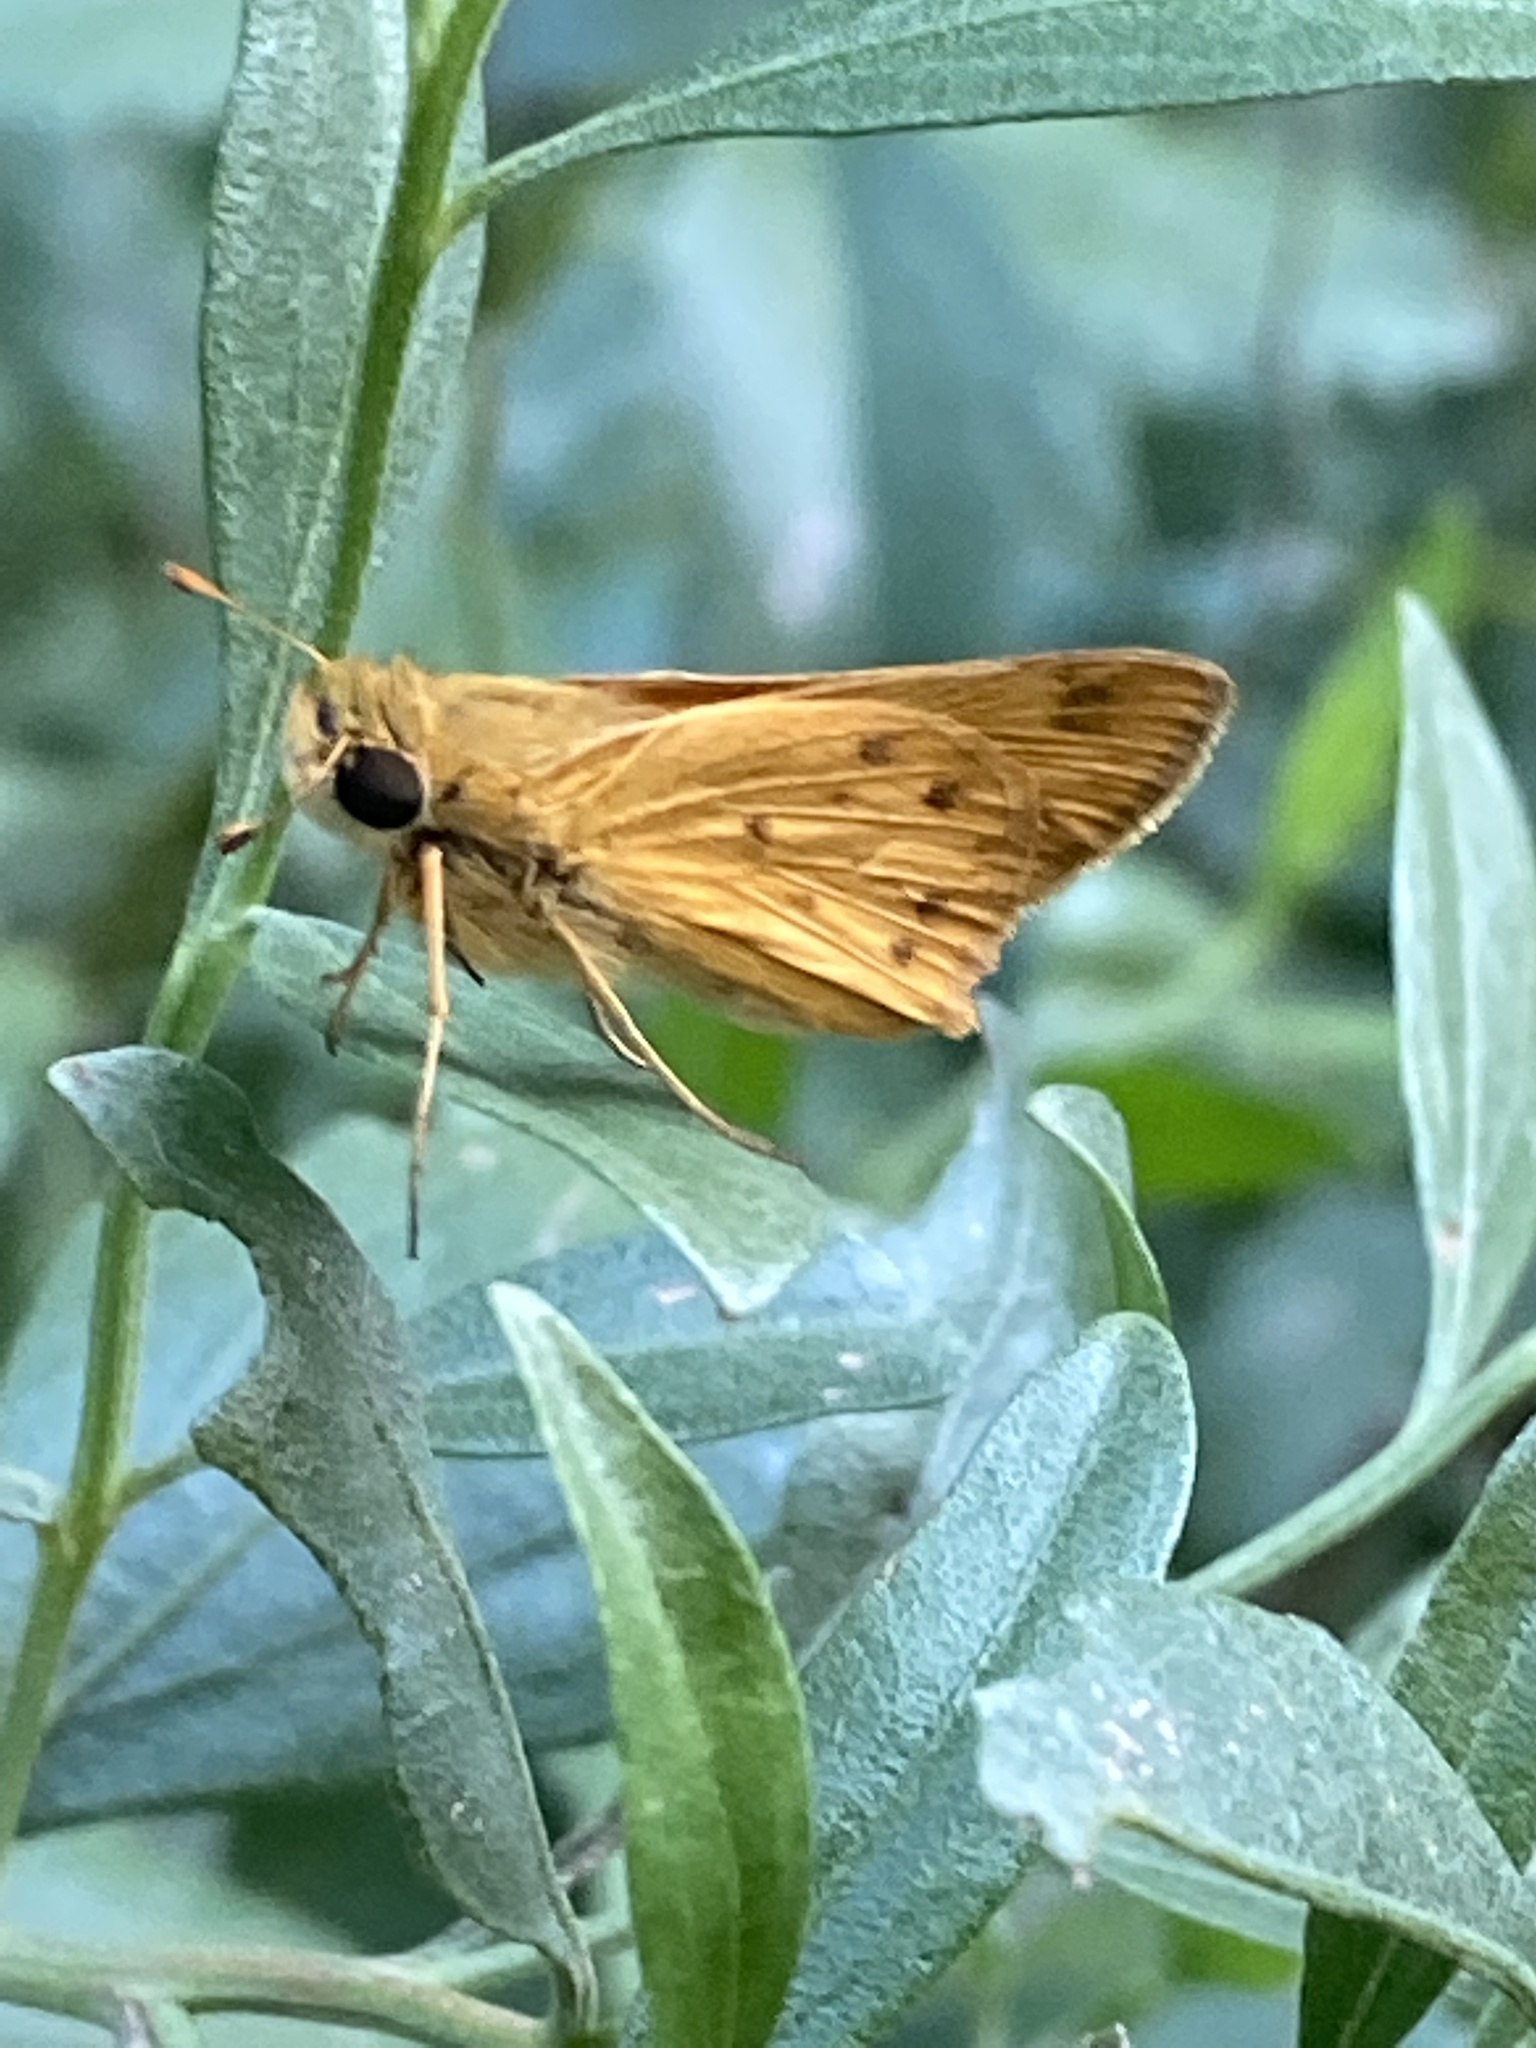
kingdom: Animalia
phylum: Arthropoda
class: Insecta
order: Lepidoptera
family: Hesperiidae
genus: Hylephila
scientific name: Hylephila phyleus
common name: Fiery skipper
